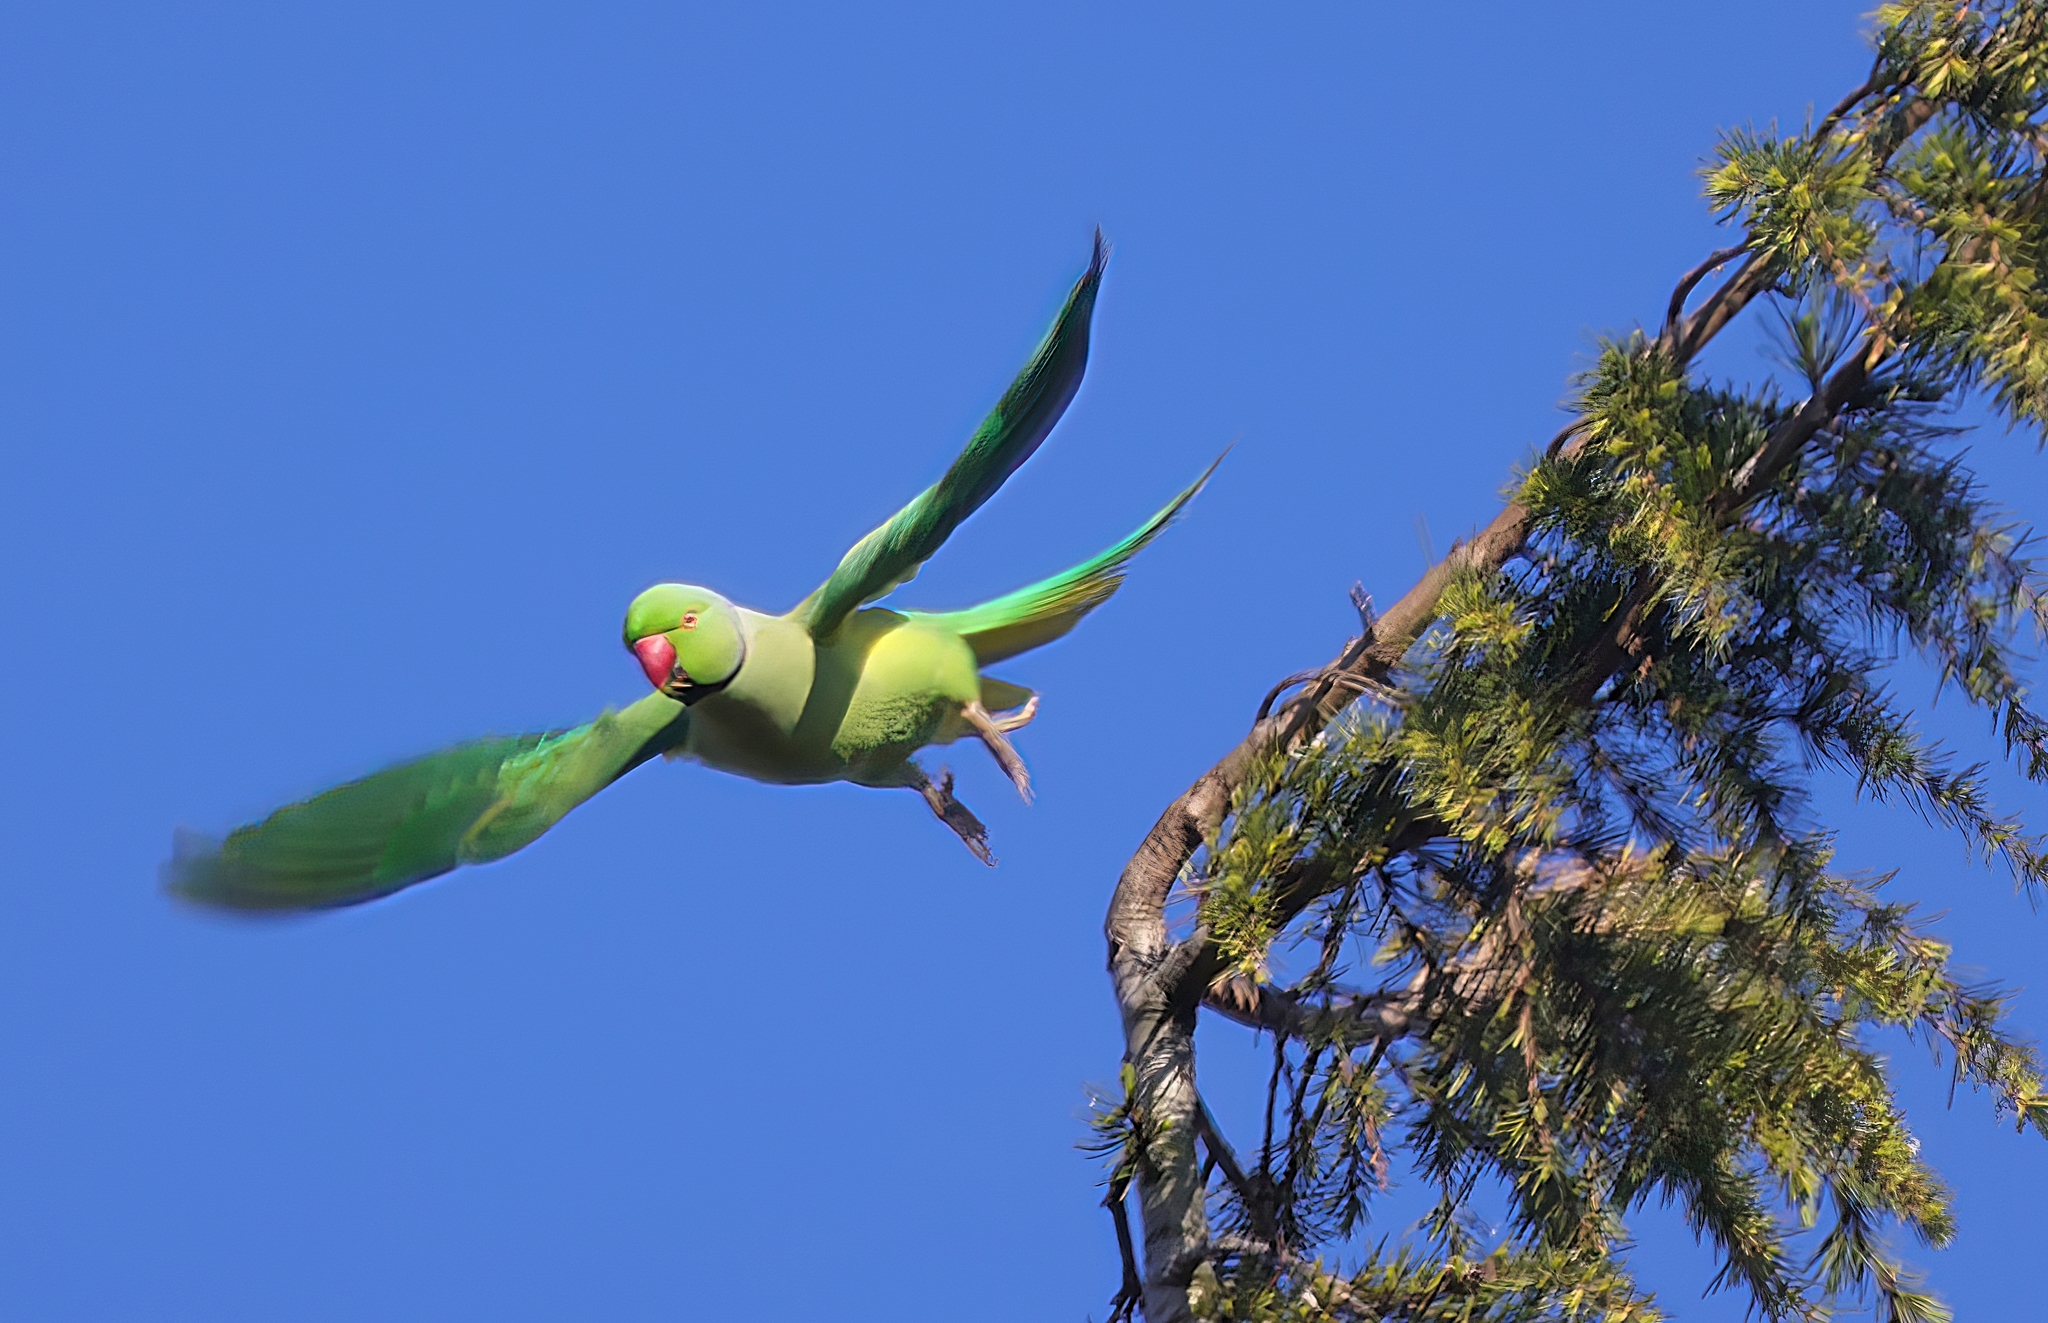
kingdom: Animalia
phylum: Chordata
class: Aves
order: Psittaciformes
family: Psittacidae
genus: Psittacula
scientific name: Psittacula krameri
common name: Rose-ringed parakeet
